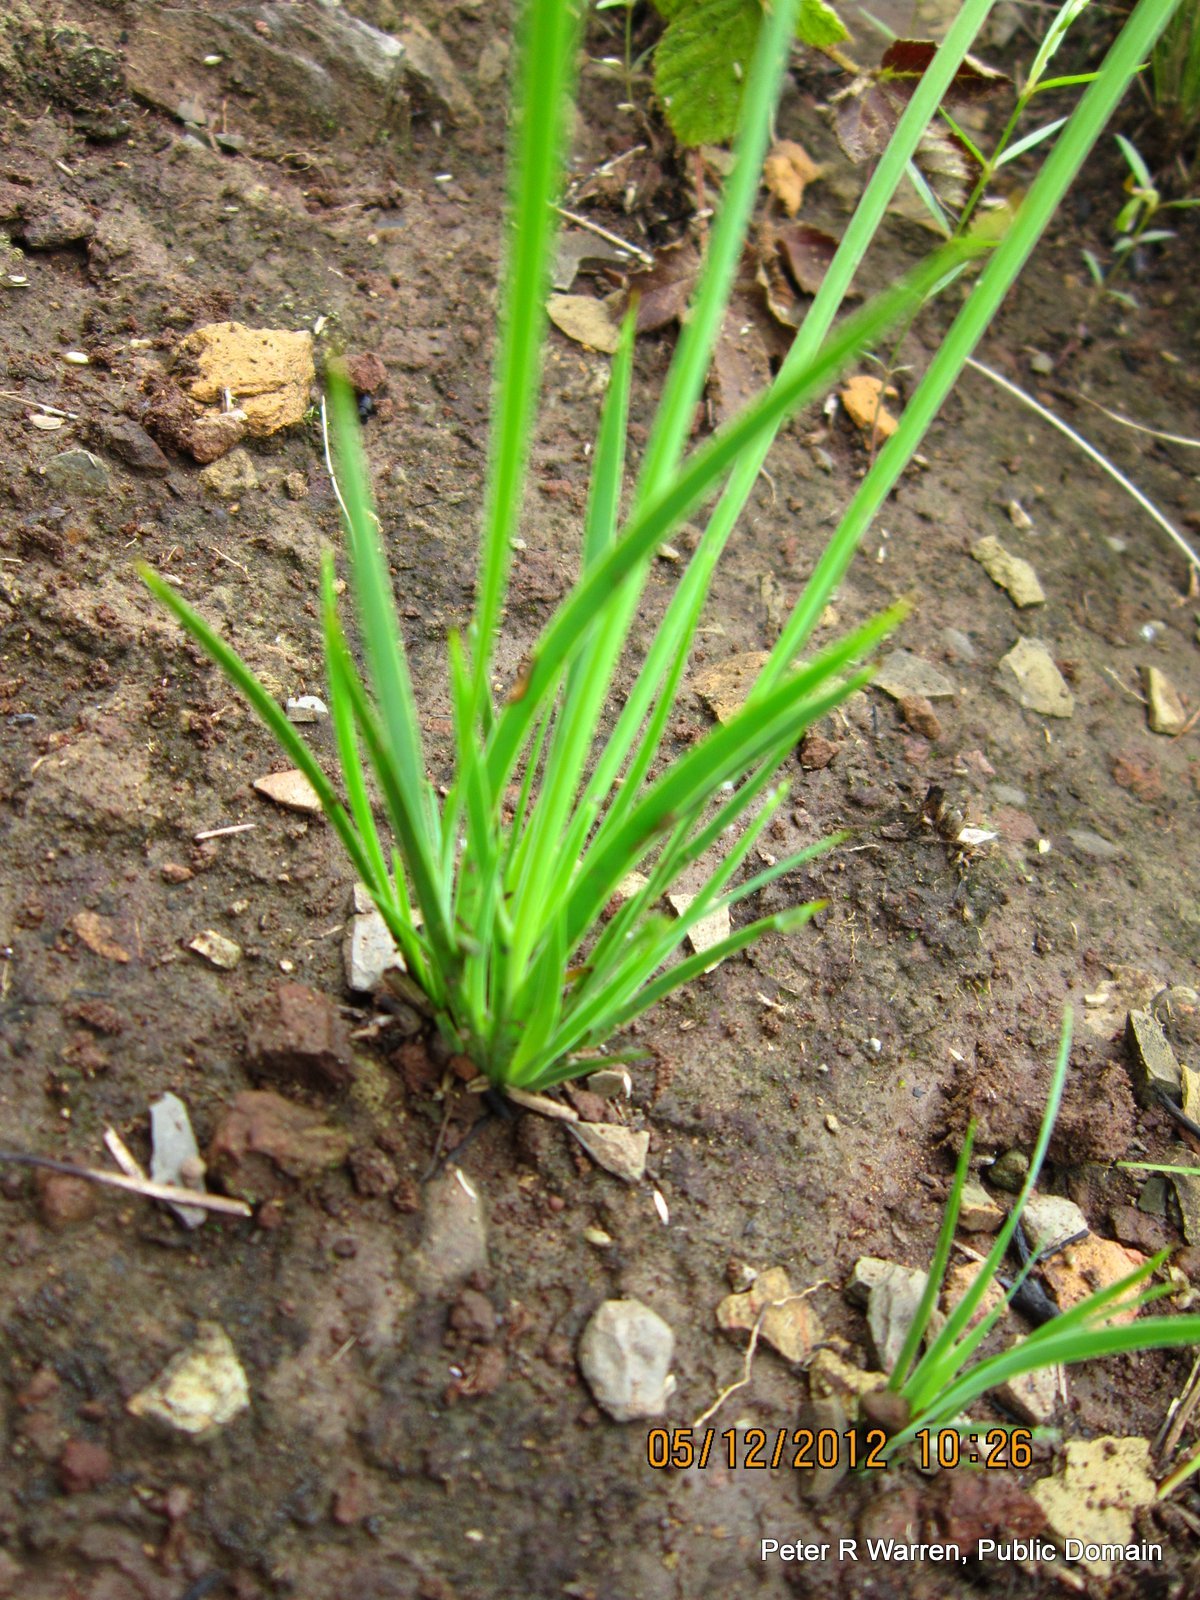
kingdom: Plantae
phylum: Tracheophyta
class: Liliopsida
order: Asparagales
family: Iridaceae
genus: Aristea
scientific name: Aristea abyssinica
